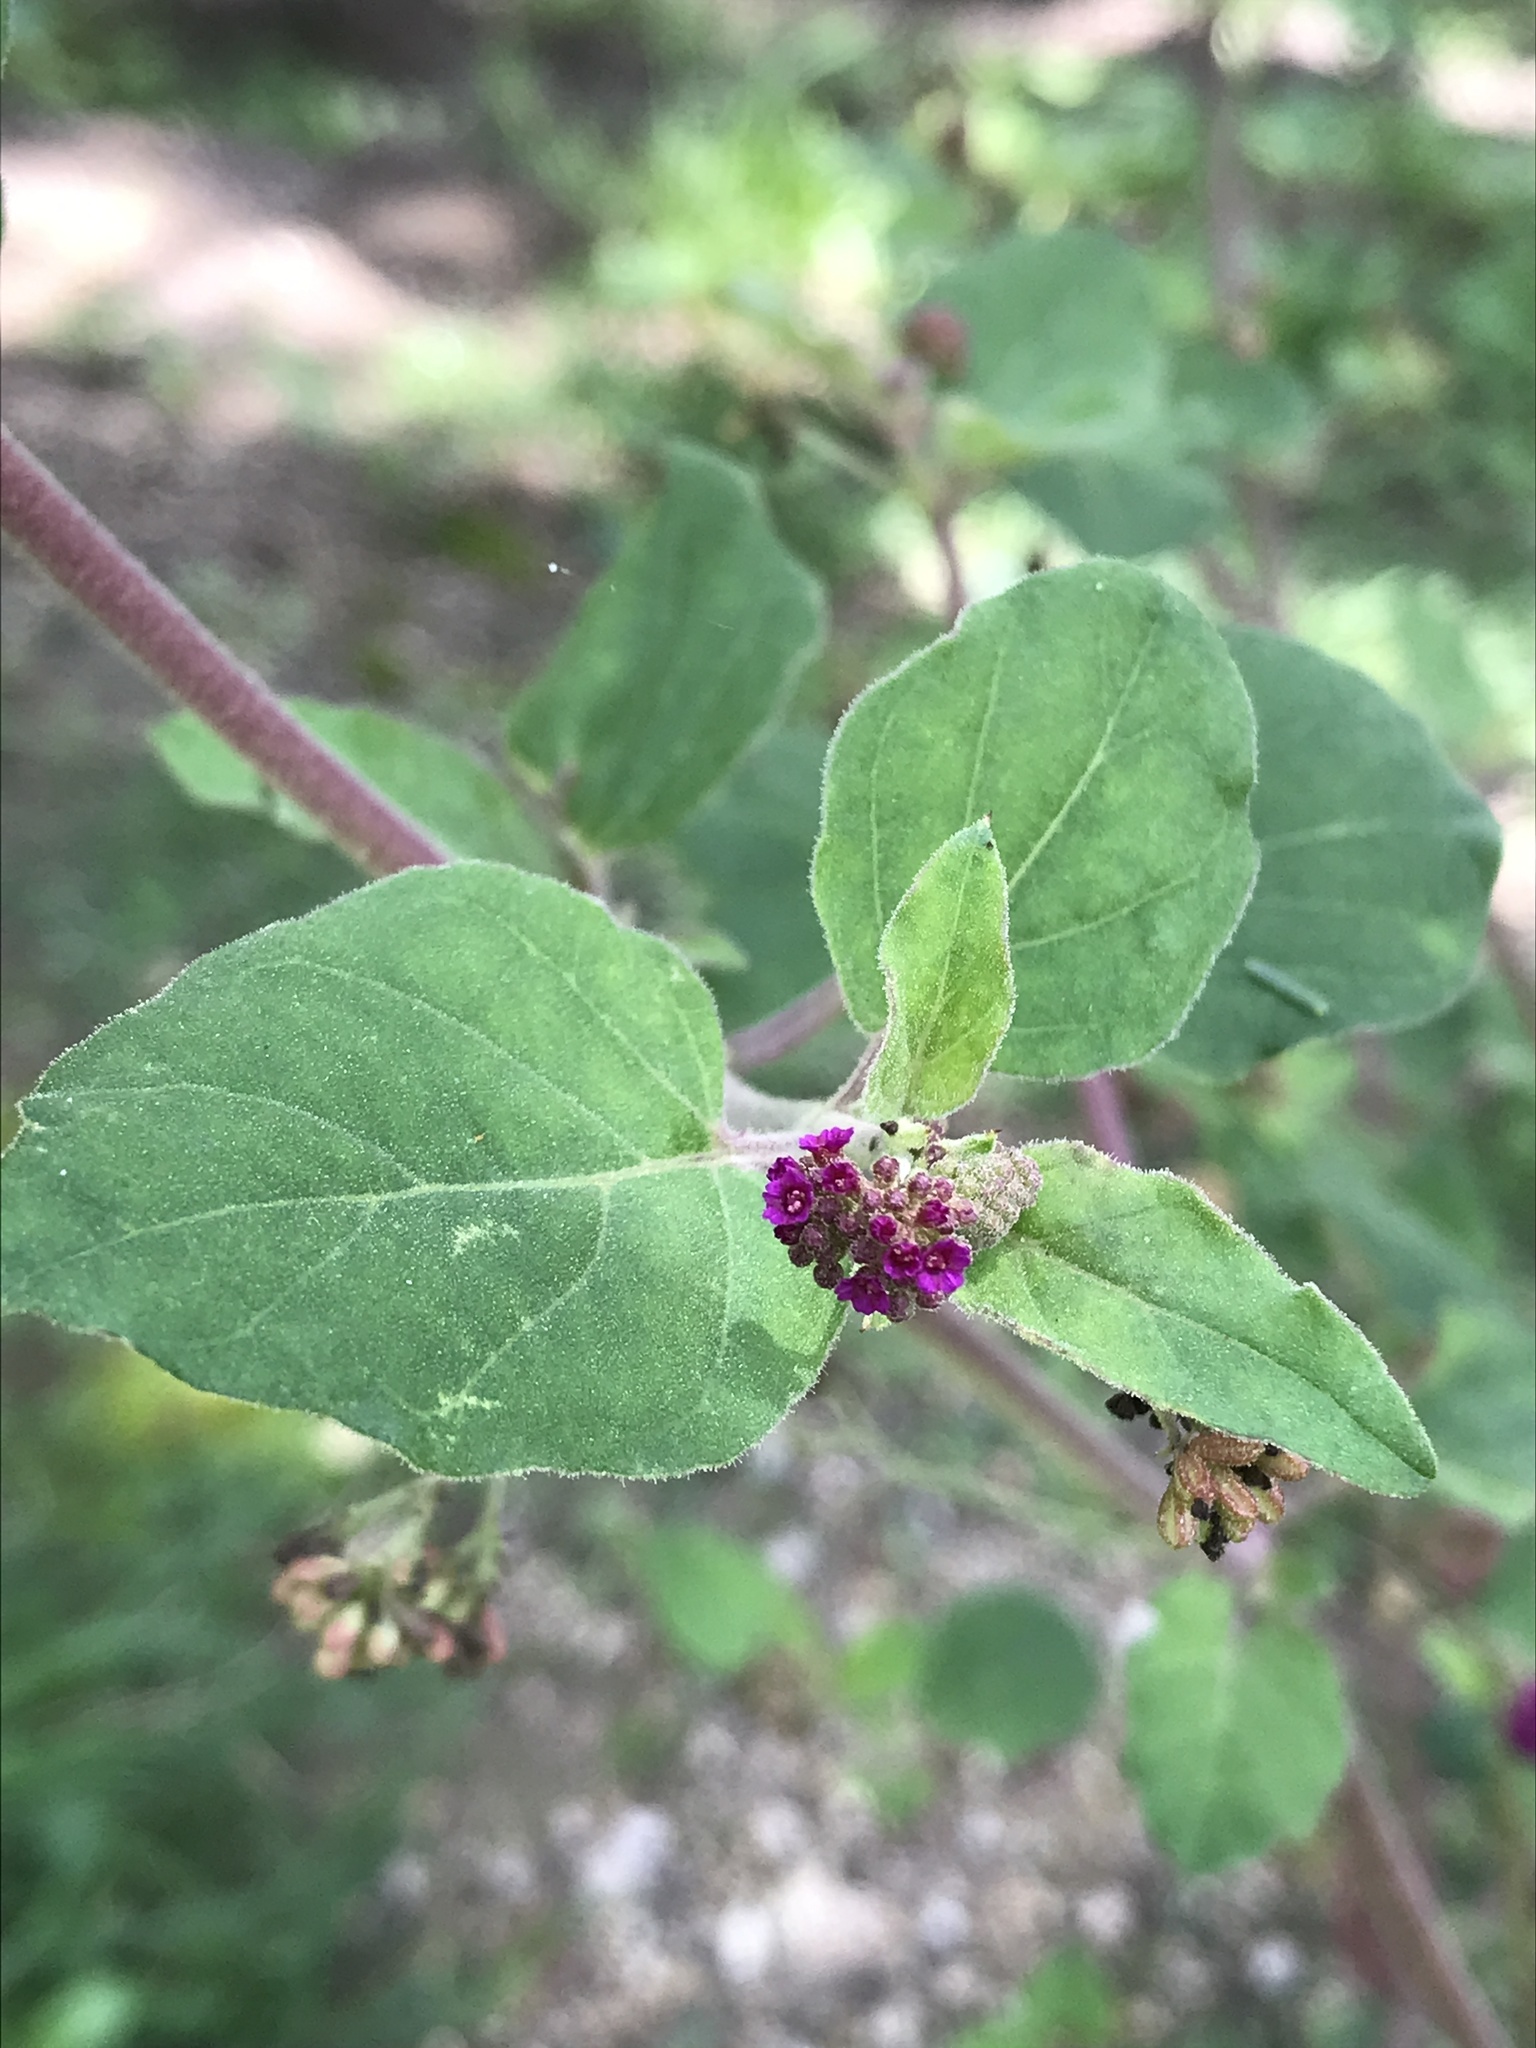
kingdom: Plantae
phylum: Tracheophyta
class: Magnoliopsida
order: Caryophyllales
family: Nyctaginaceae
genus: Boerhavia
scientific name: Boerhavia coccinea
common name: Scarlet spiderling
